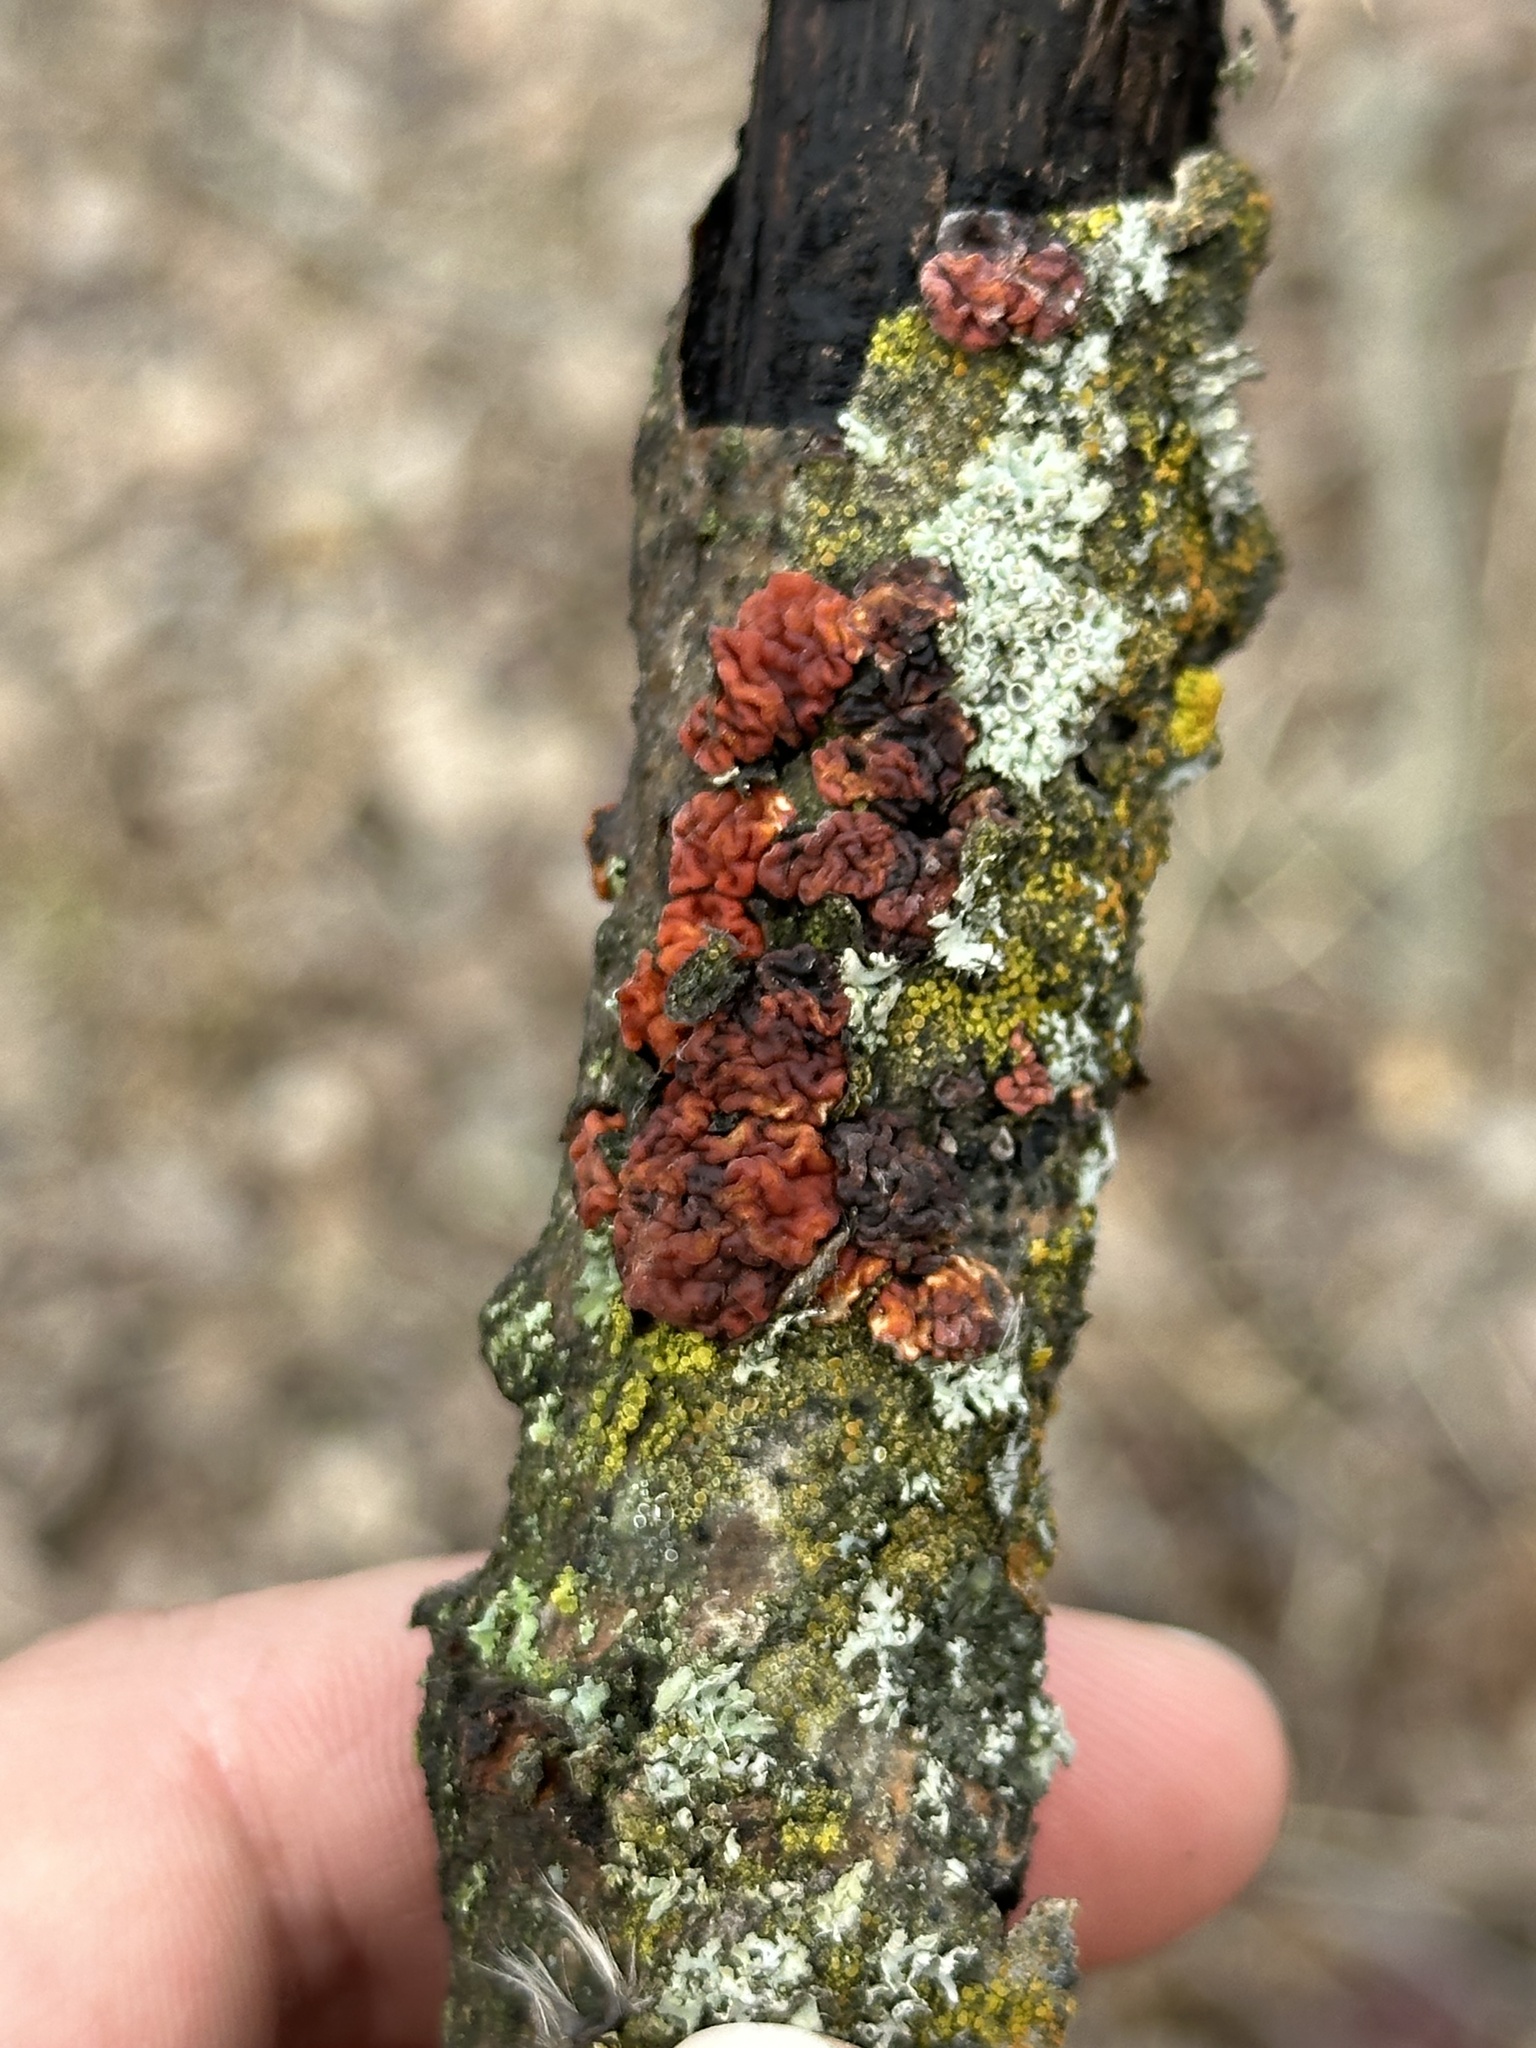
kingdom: Fungi
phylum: Basidiomycota
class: Agaricomycetes
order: Russulales
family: Peniophoraceae
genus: Peniophora
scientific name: Peniophora rufa
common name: Red tree brain fungus
